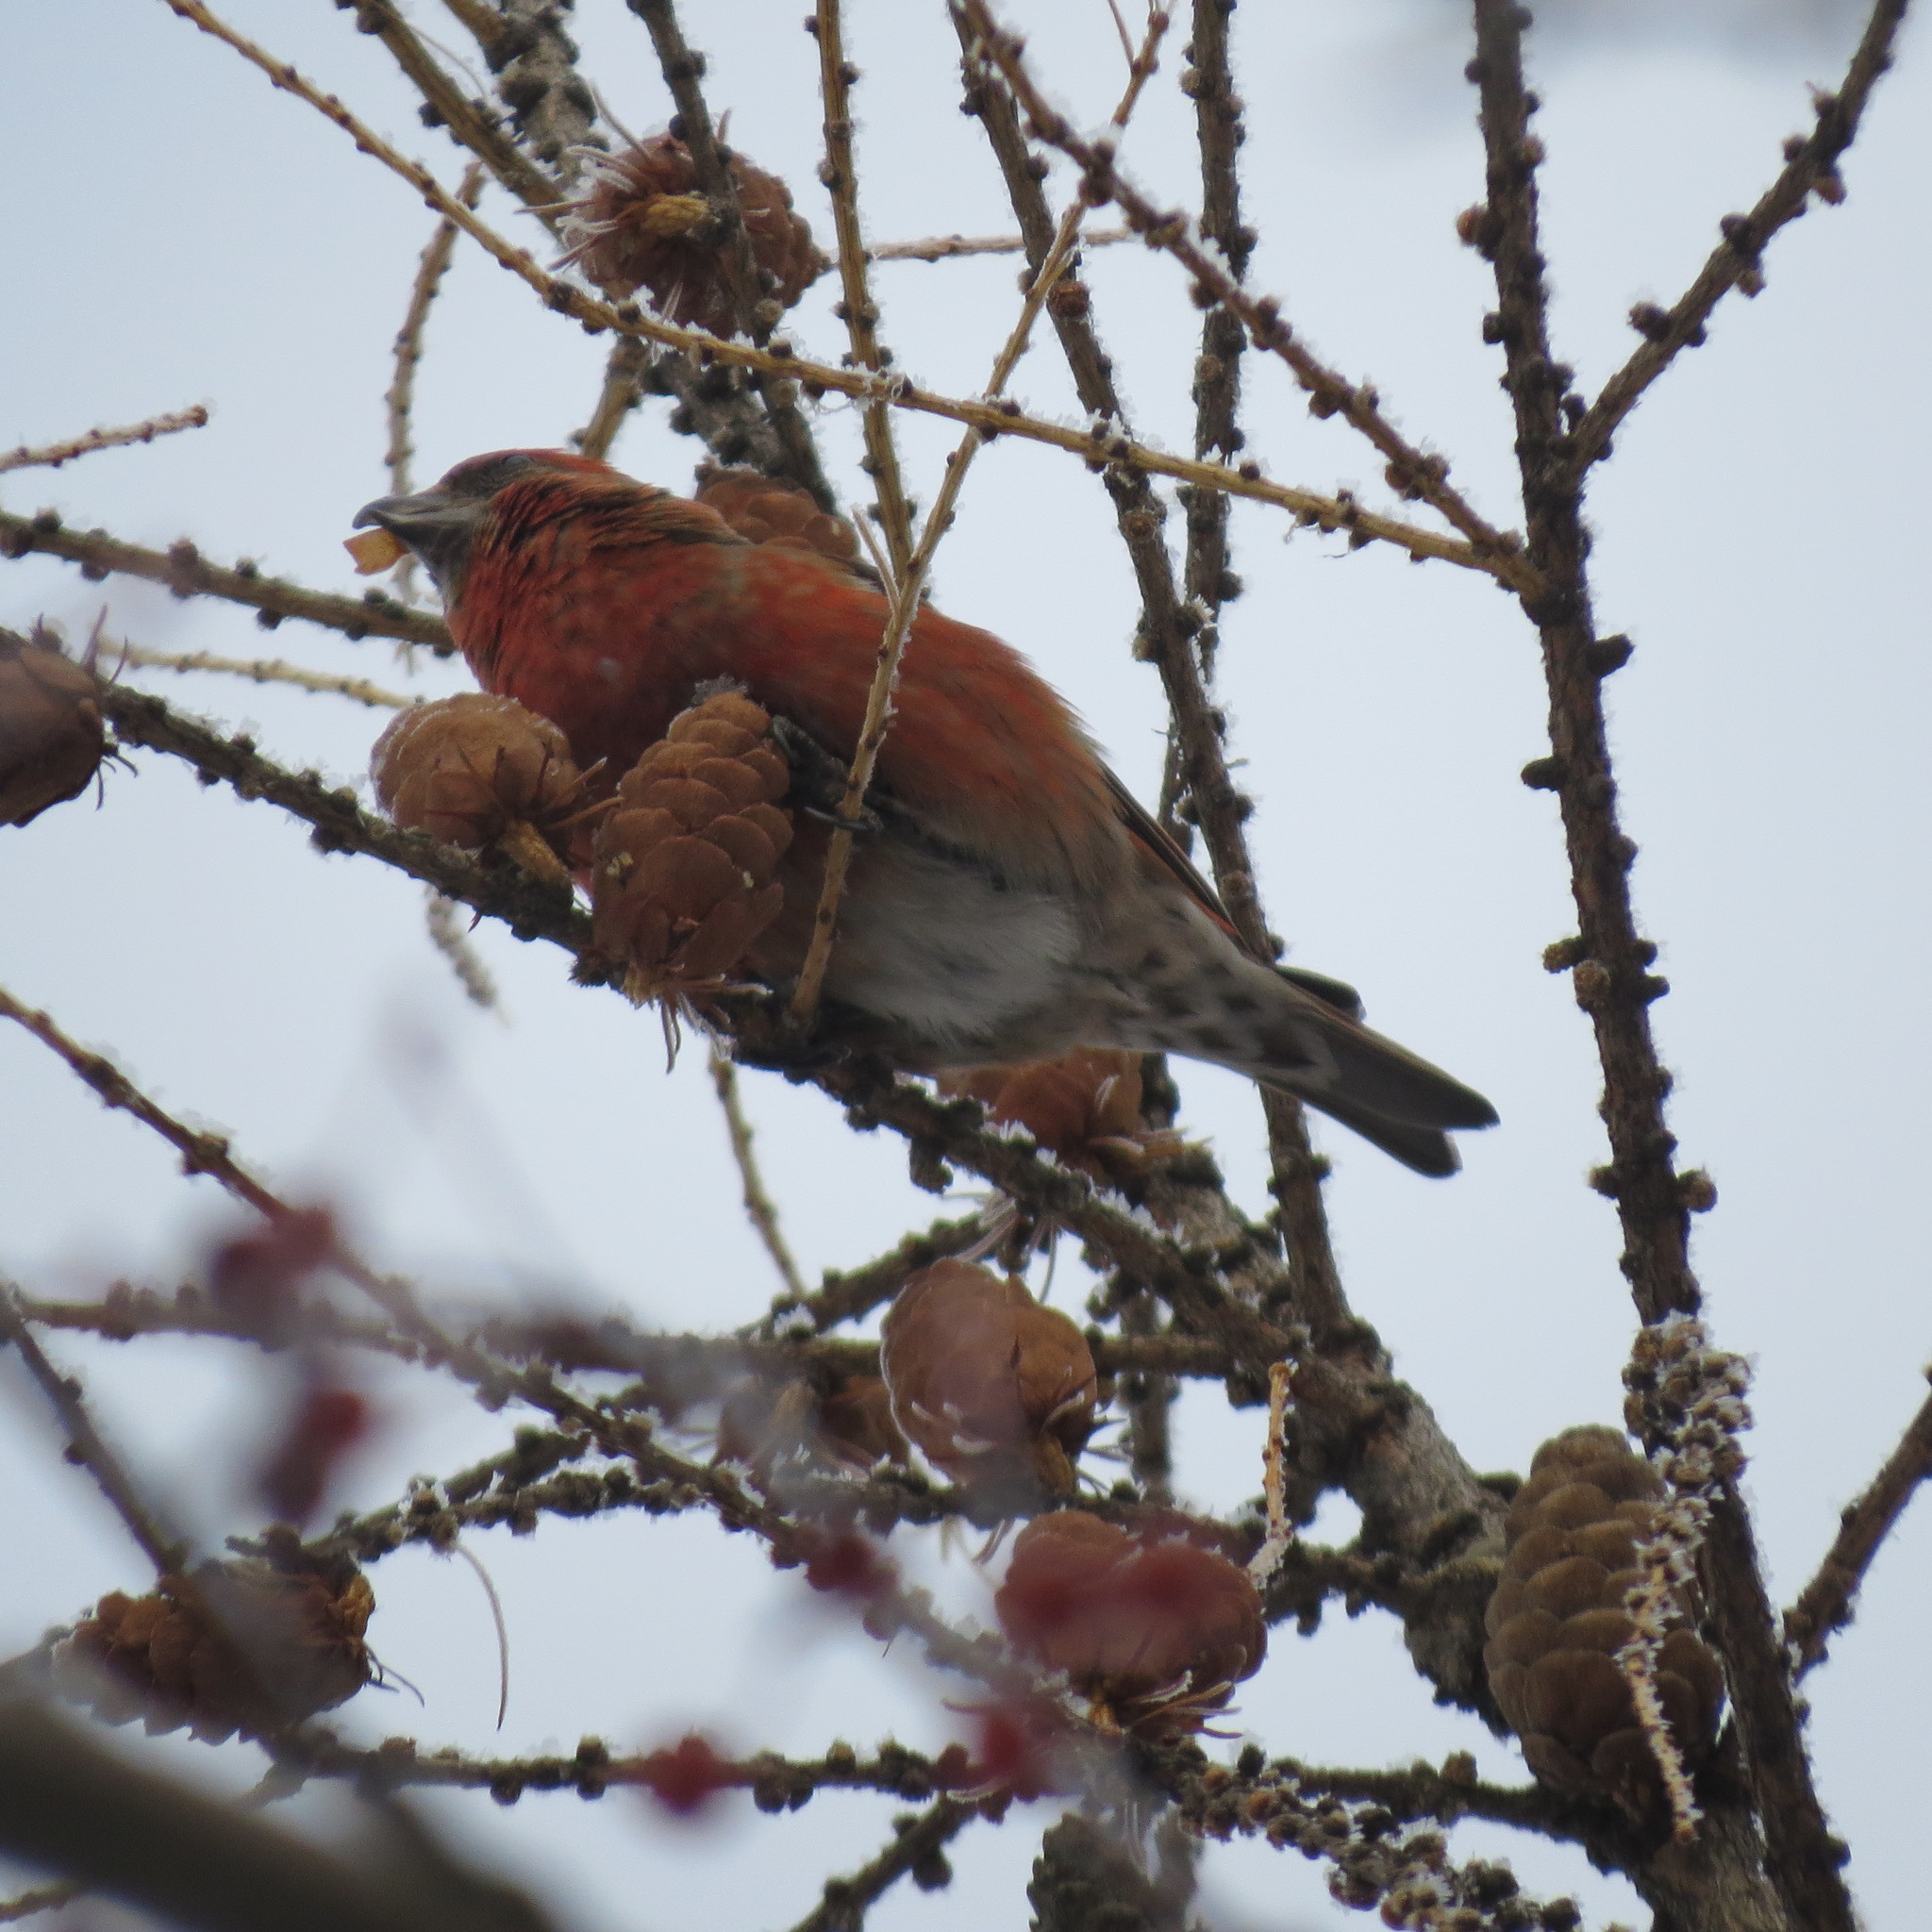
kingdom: Animalia
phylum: Chordata
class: Aves
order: Passeriformes
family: Fringillidae
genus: Loxia
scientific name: Loxia curvirostra
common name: Red crossbill
